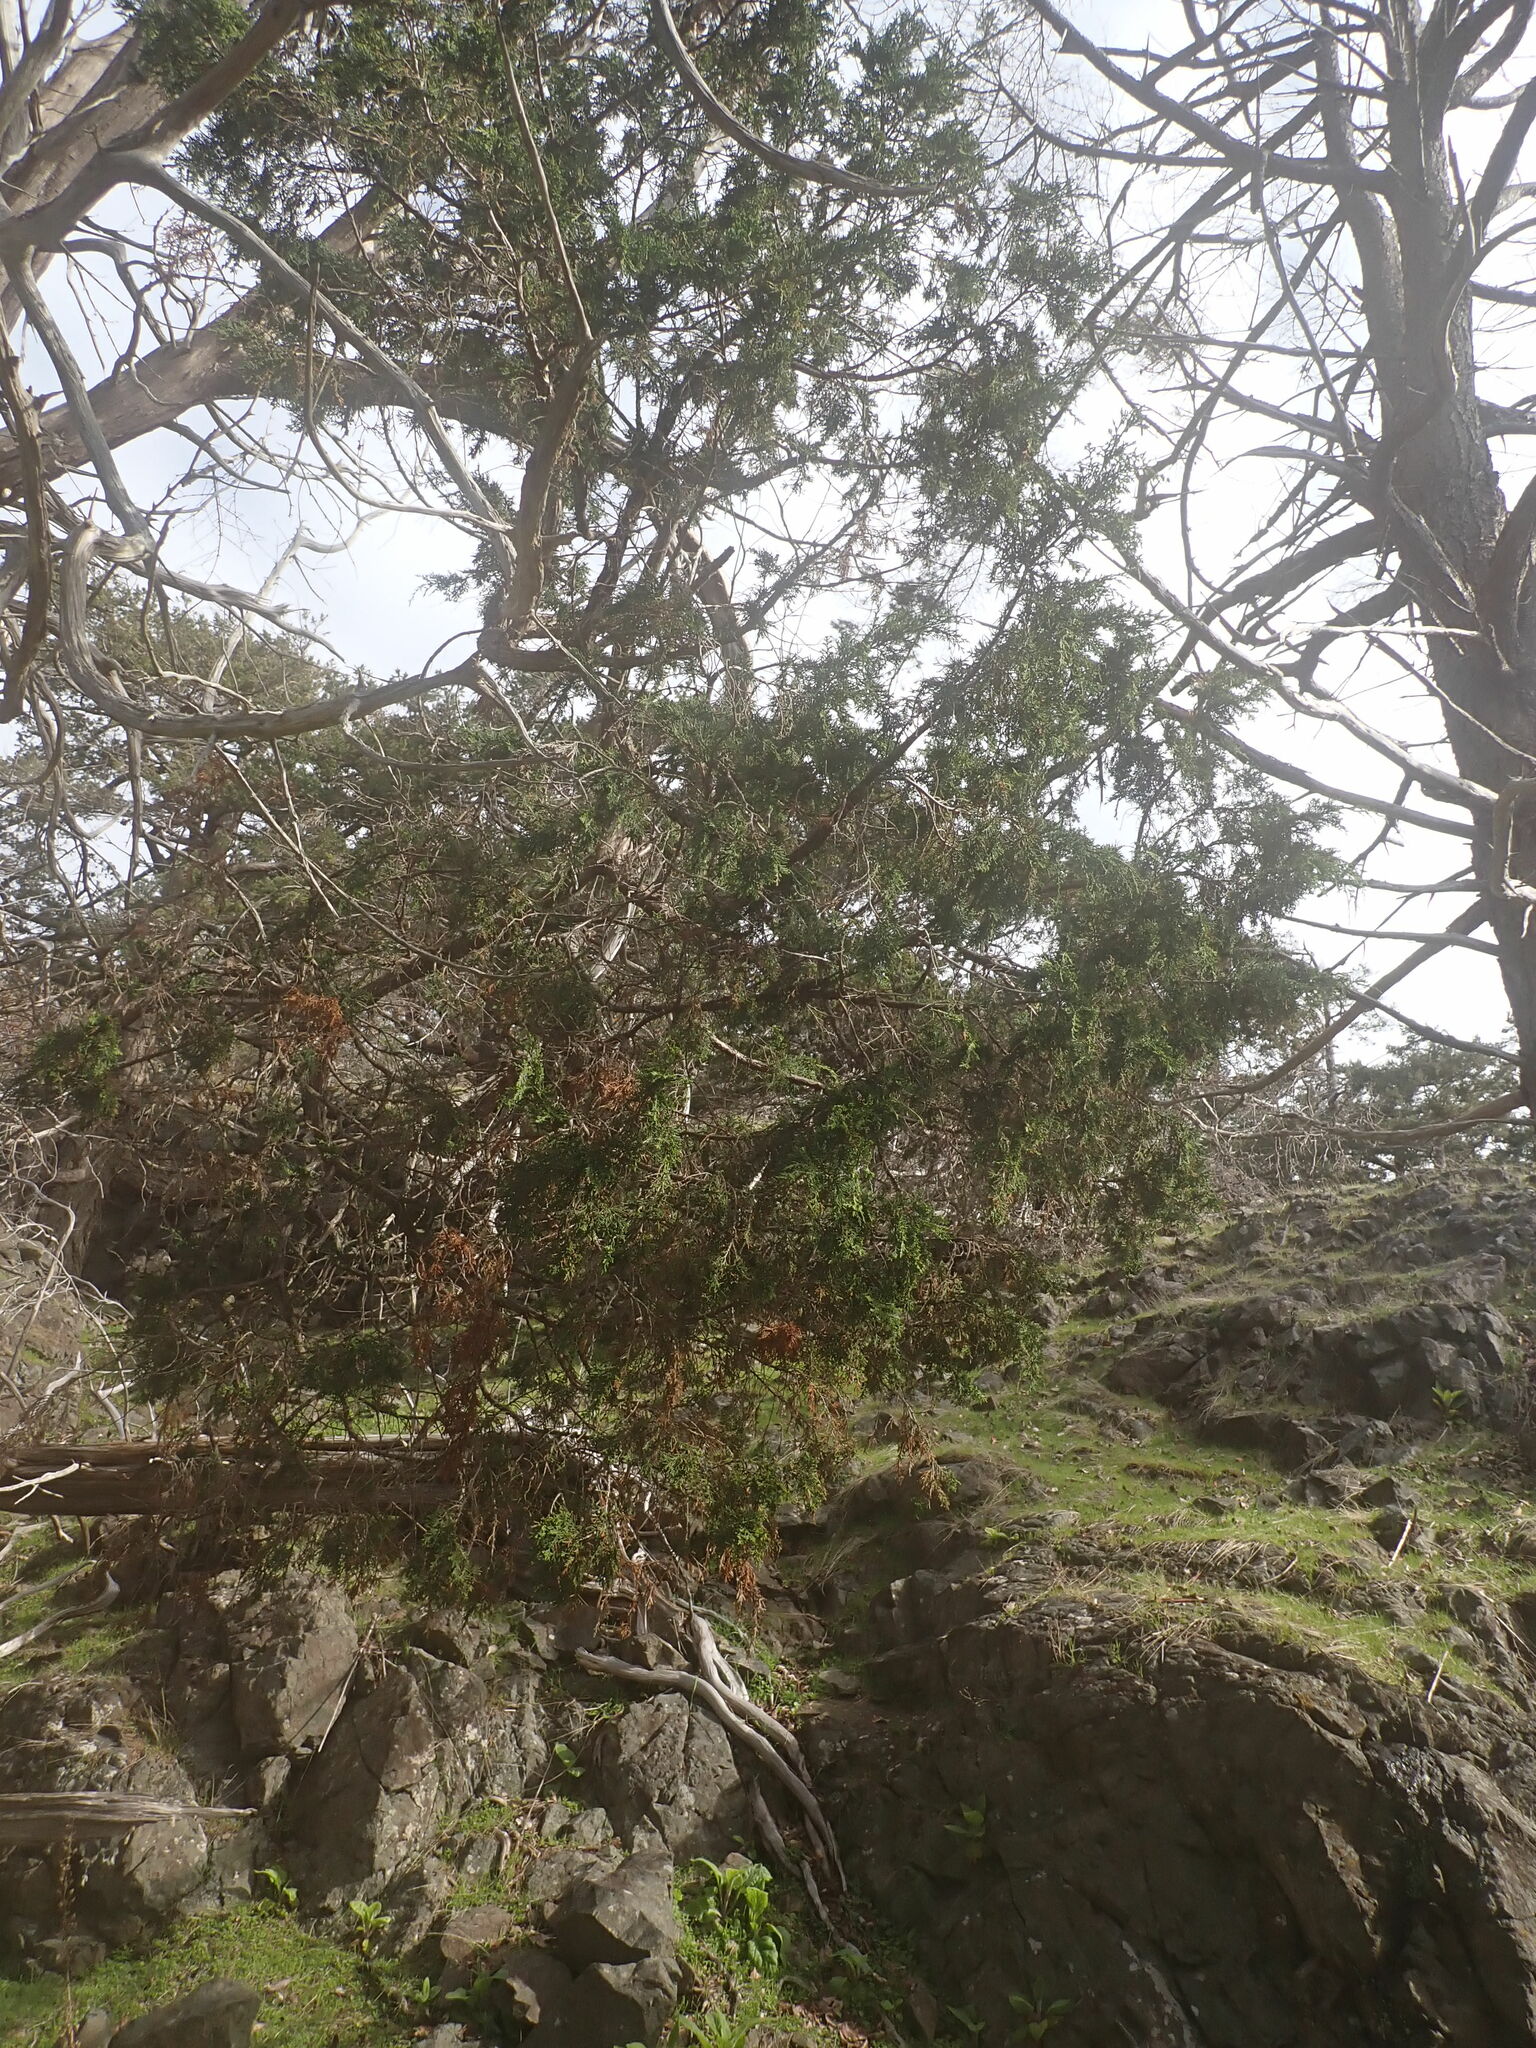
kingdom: Plantae
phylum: Tracheophyta
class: Pinopsida
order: Pinales
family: Cupressaceae
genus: Juniperus
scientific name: Juniperus scopulorum
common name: Rocky mountain juniper
